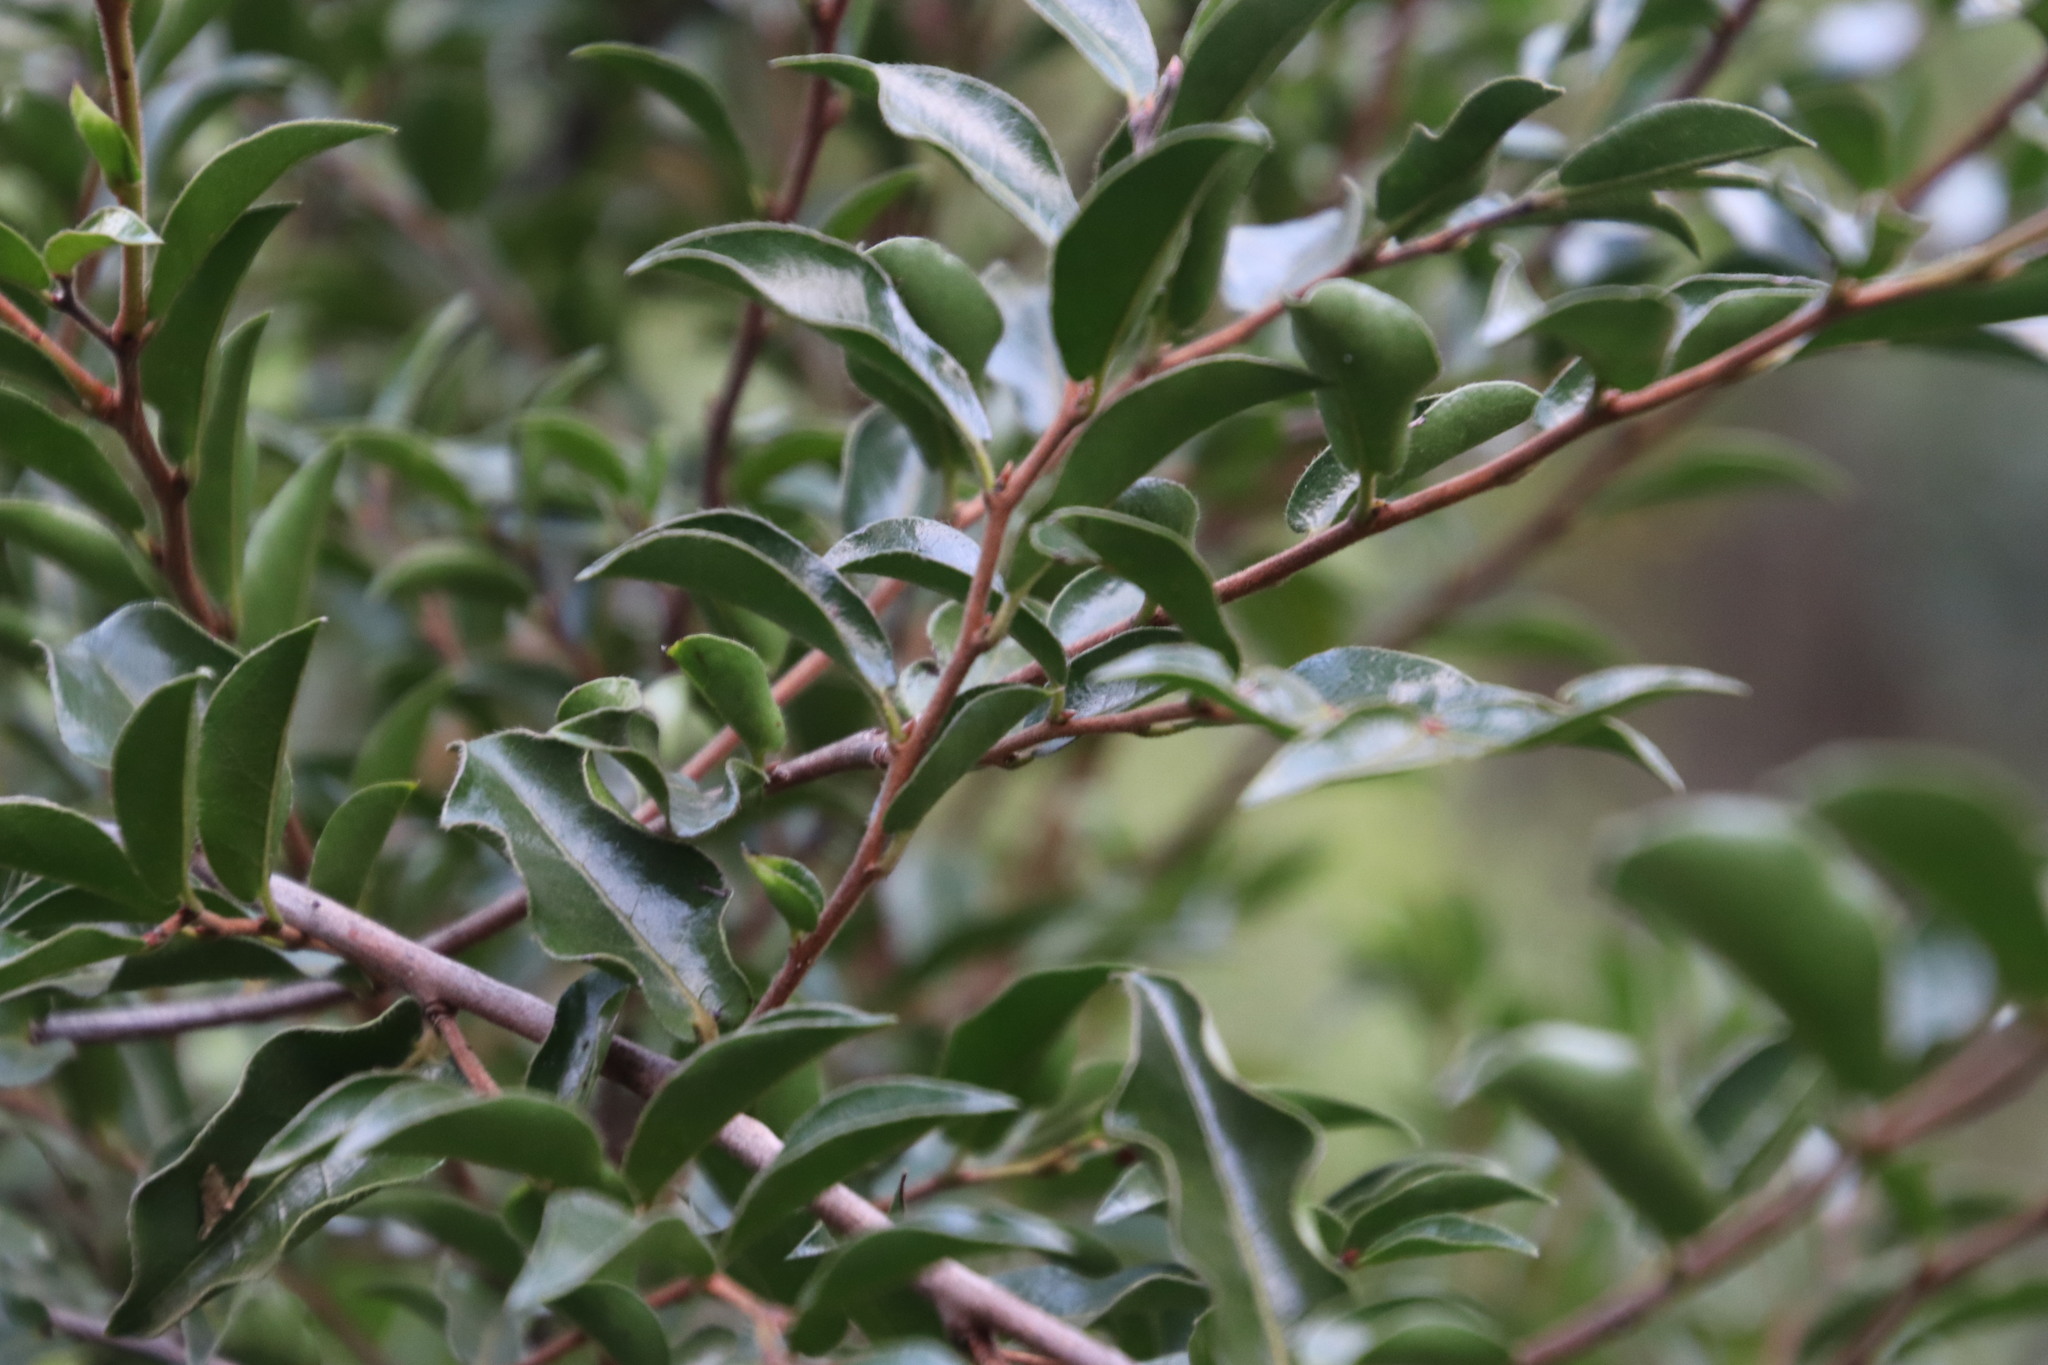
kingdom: Plantae
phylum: Tracheophyta
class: Magnoliopsida
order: Ericales
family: Ebenaceae
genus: Diospyros
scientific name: Diospyros whyteana
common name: Bladder-nut
